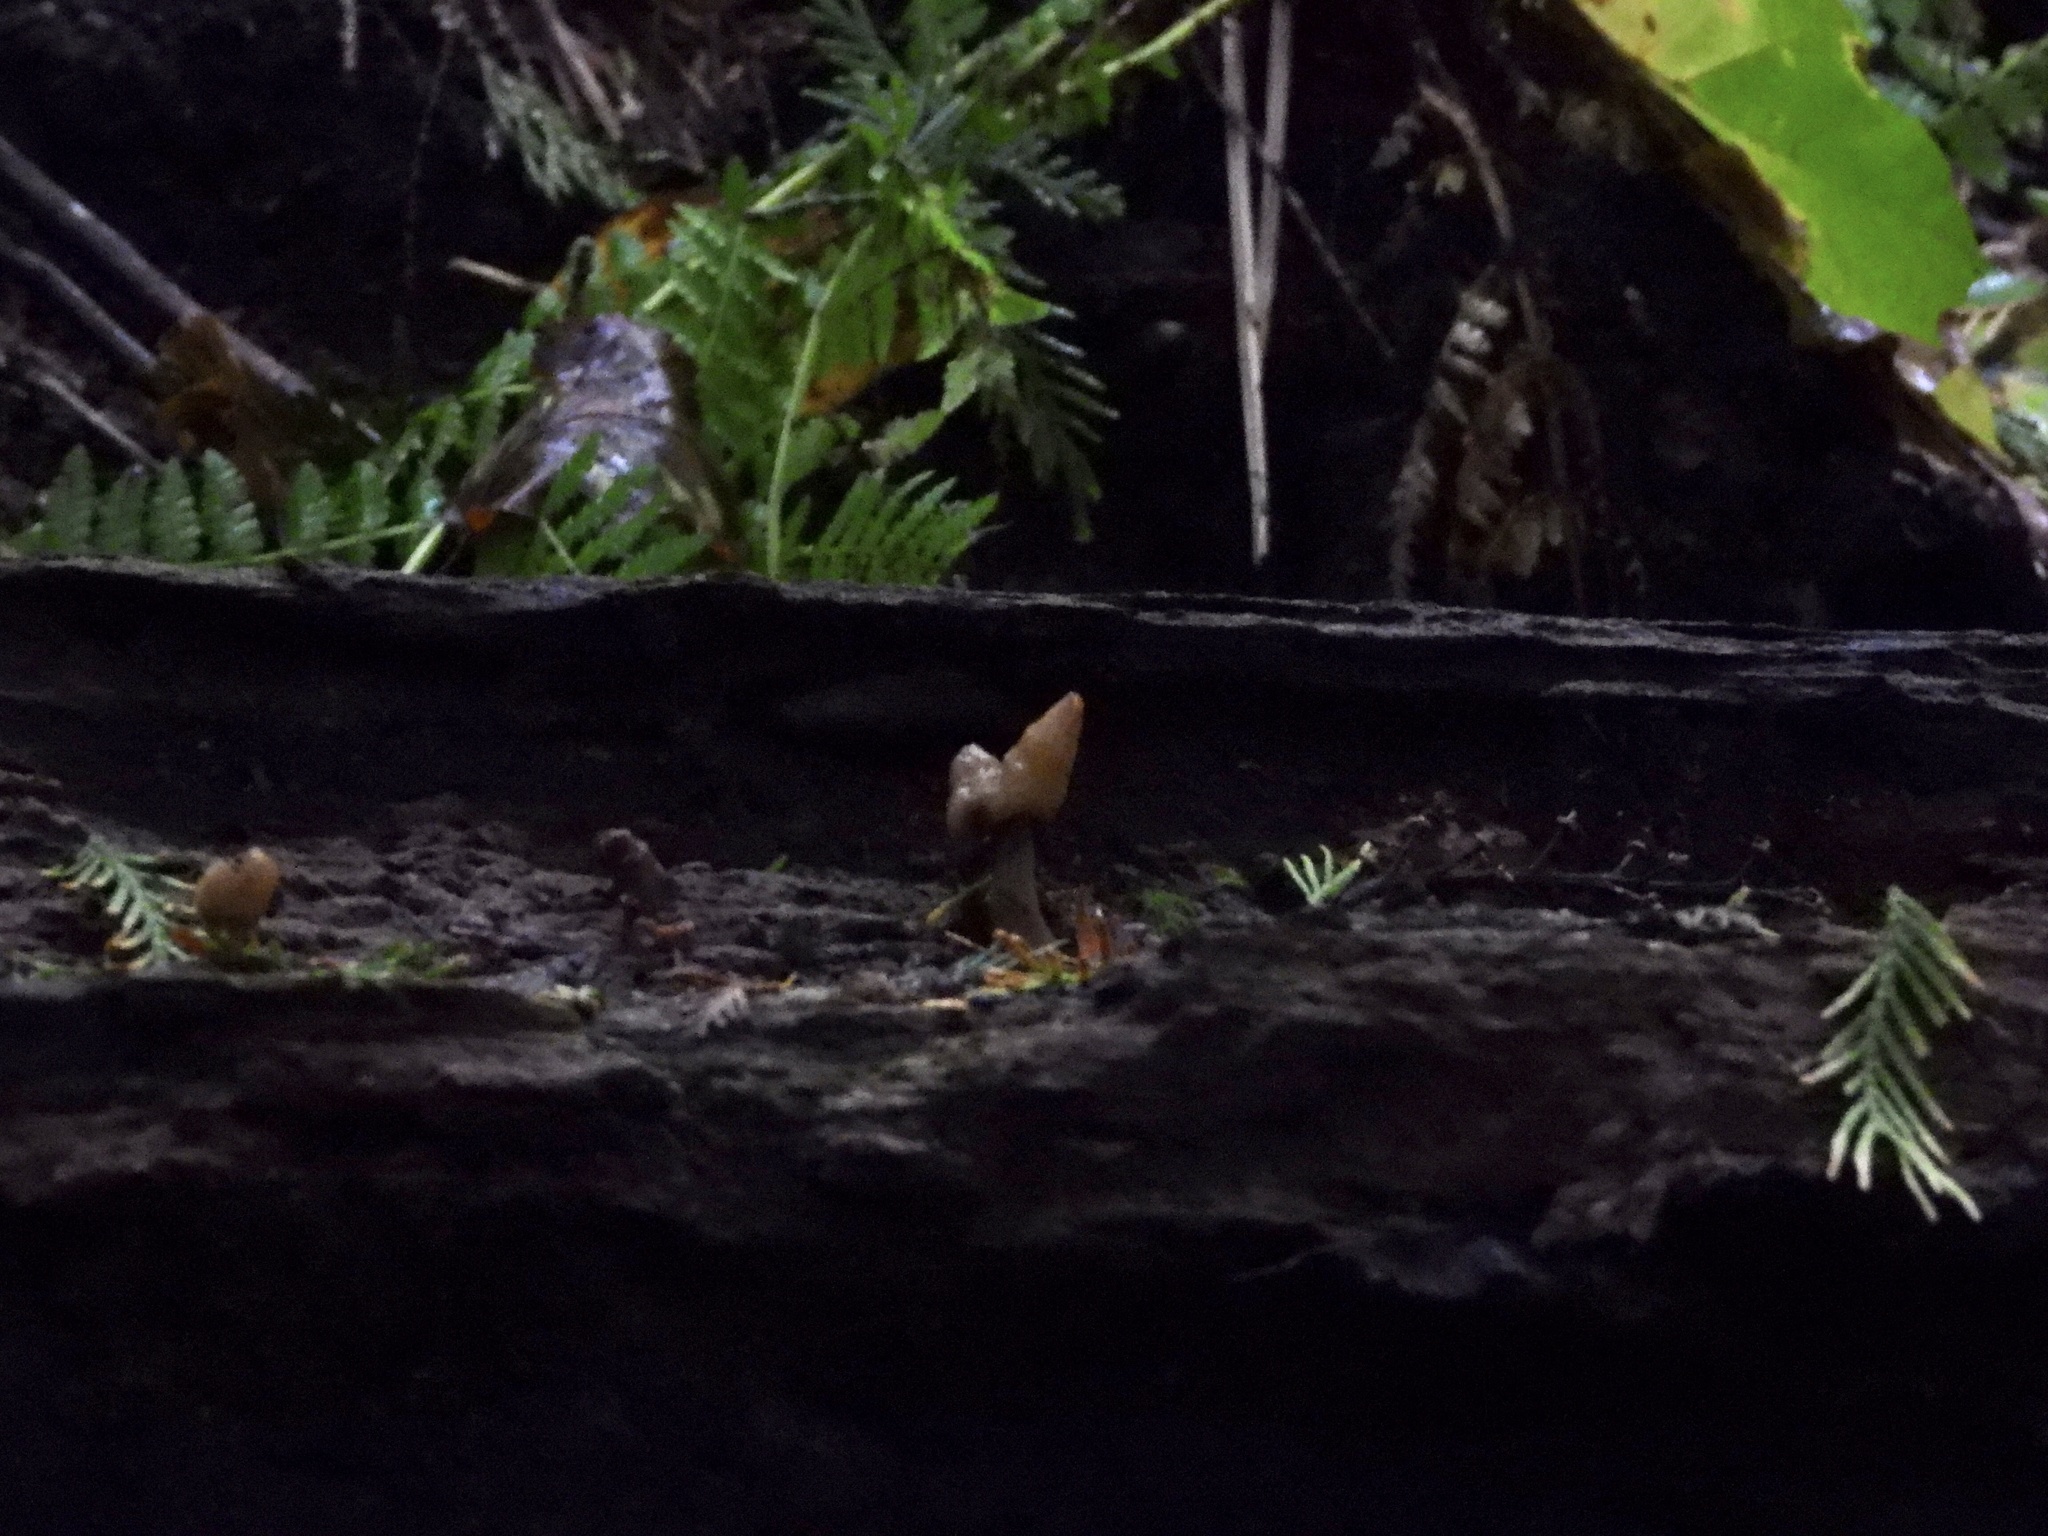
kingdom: Fungi
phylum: Ascomycota
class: Pezizomycetes
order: Pezizales
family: Discinaceae
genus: Gyromitra
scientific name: Gyromitra infula
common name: Pouched false morel
